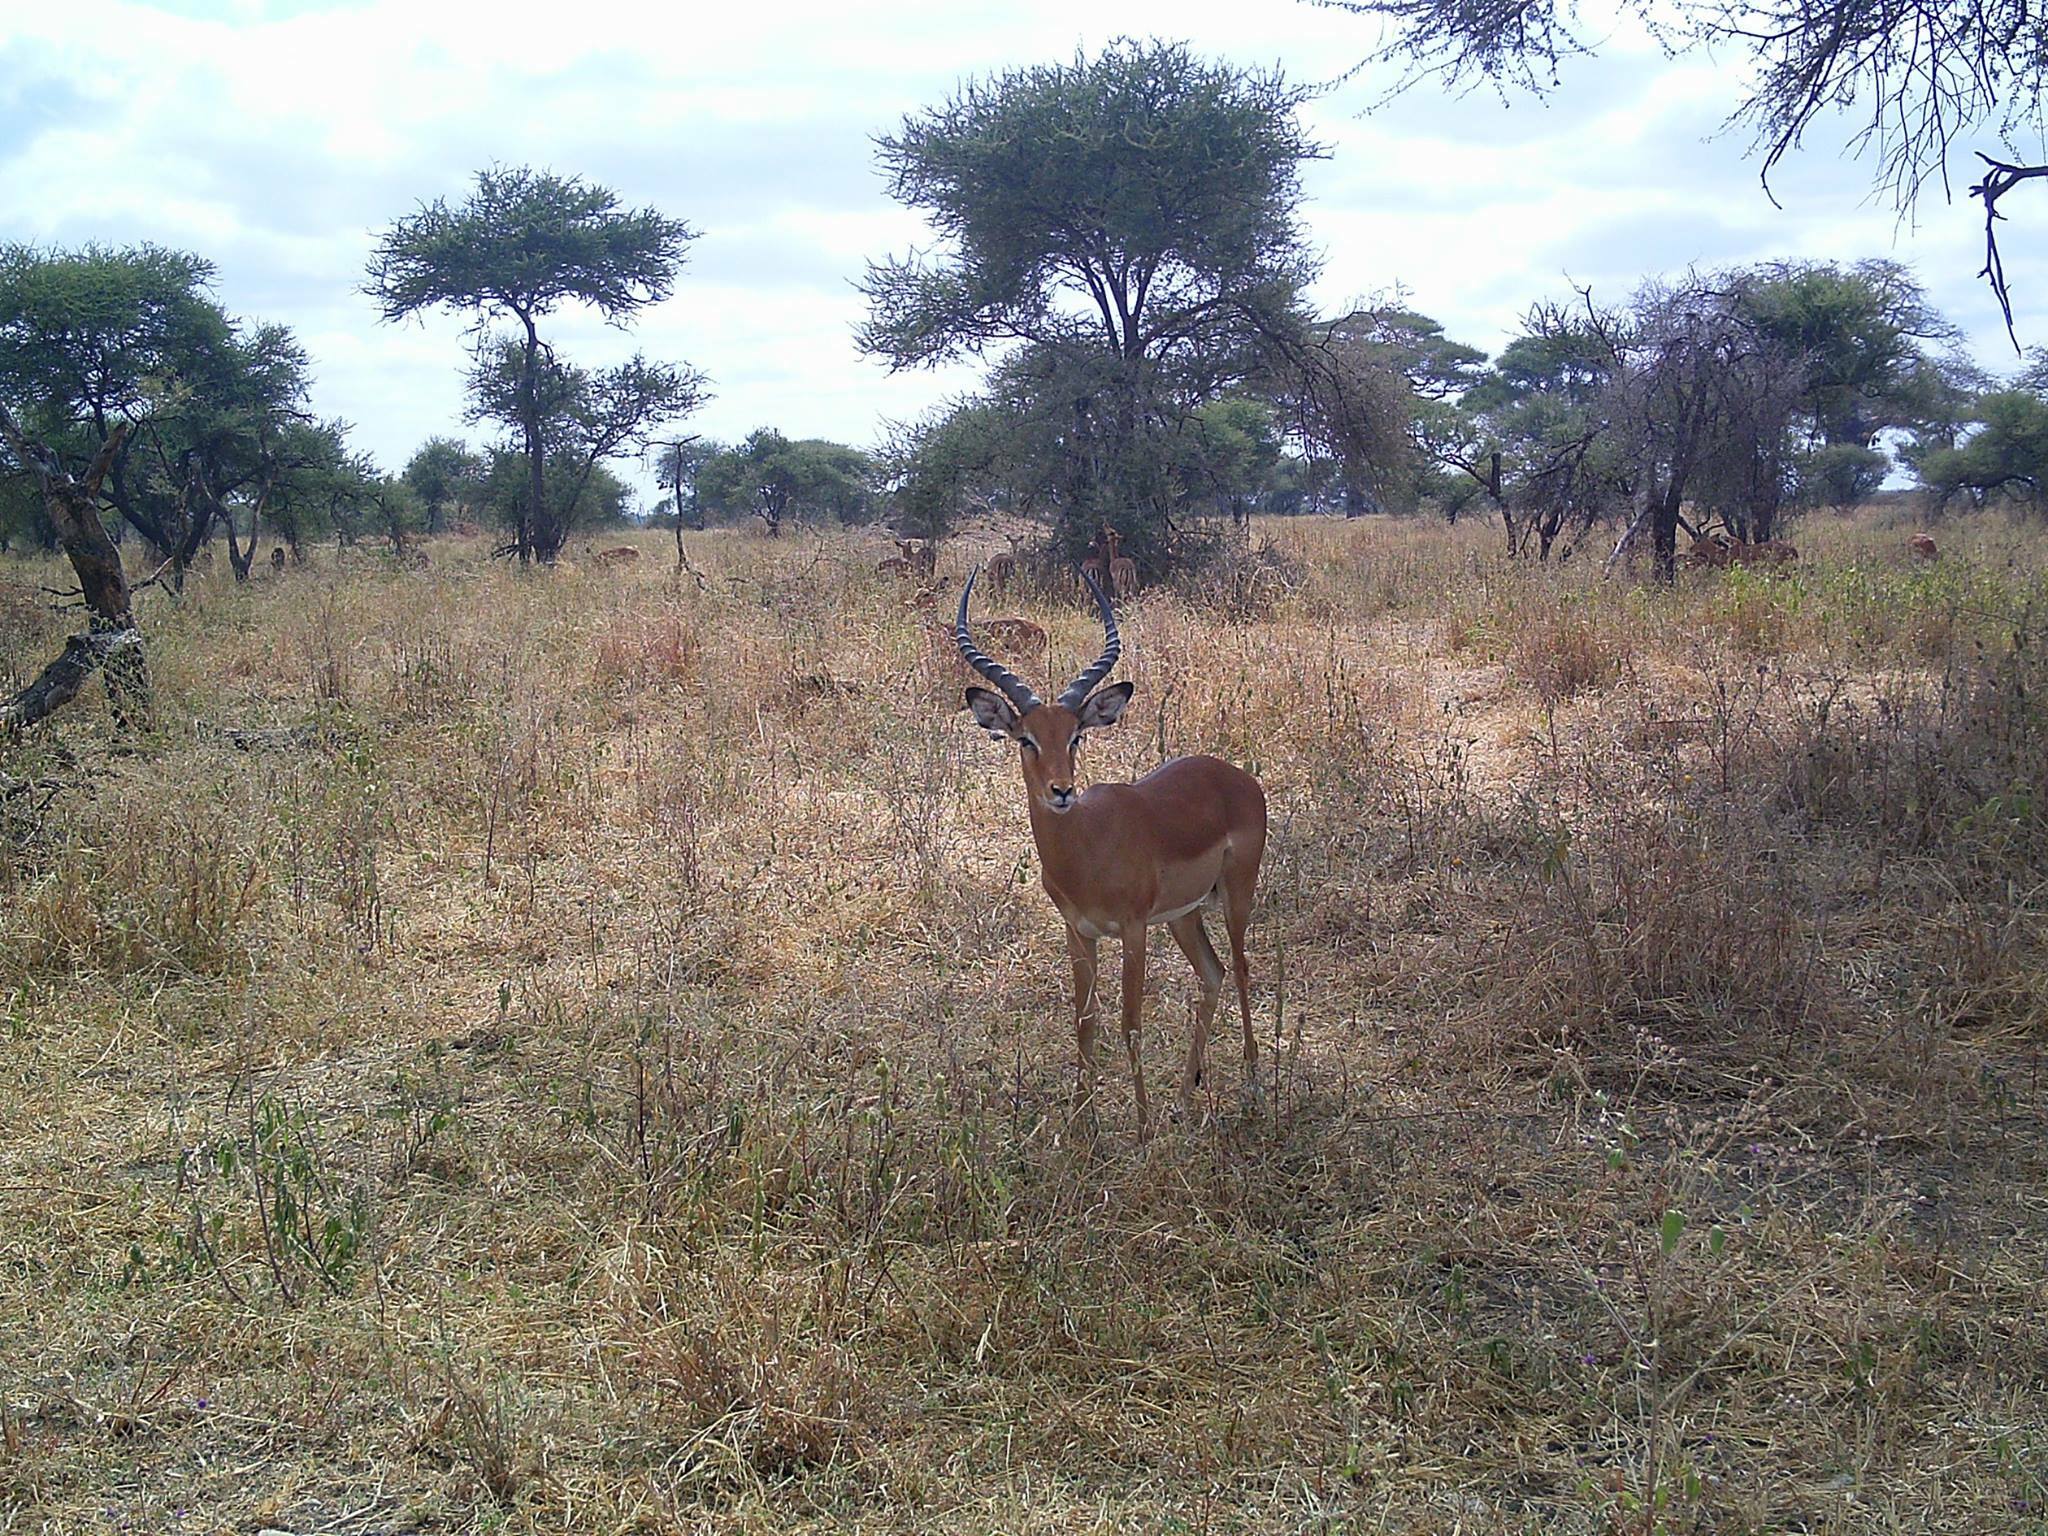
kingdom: Animalia
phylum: Chordata
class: Mammalia
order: Artiodactyla
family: Bovidae
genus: Aepyceros
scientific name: Aepyceros melampus
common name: Impala
